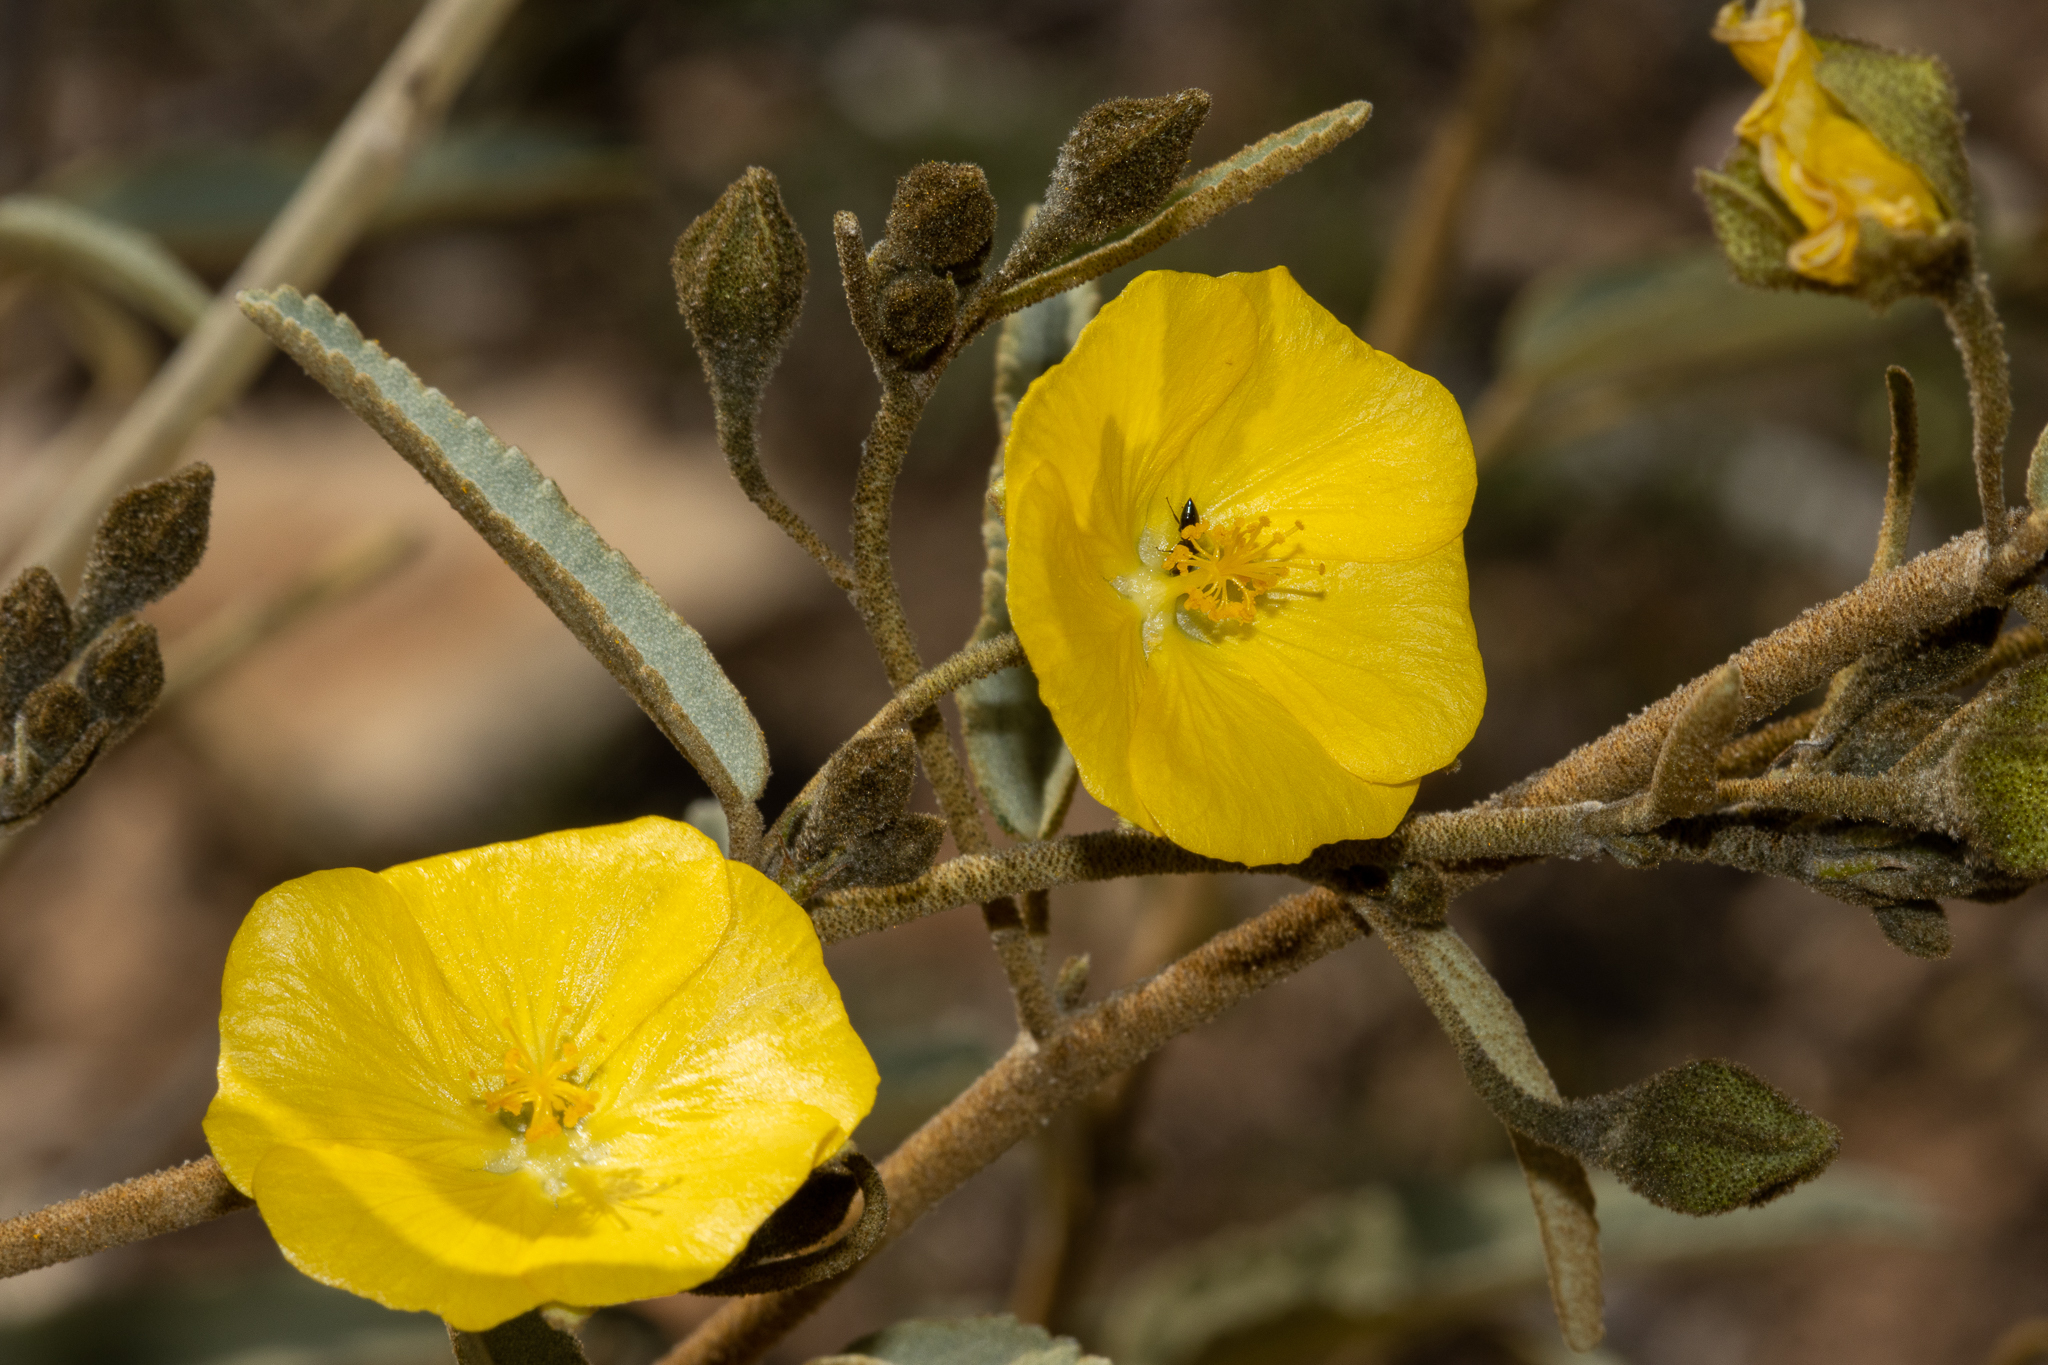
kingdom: Plantae
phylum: Tracheophyta
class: Magnoliopsida
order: Malvales
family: Malvaceae
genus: Sida
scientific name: Sida calyxhymenia
